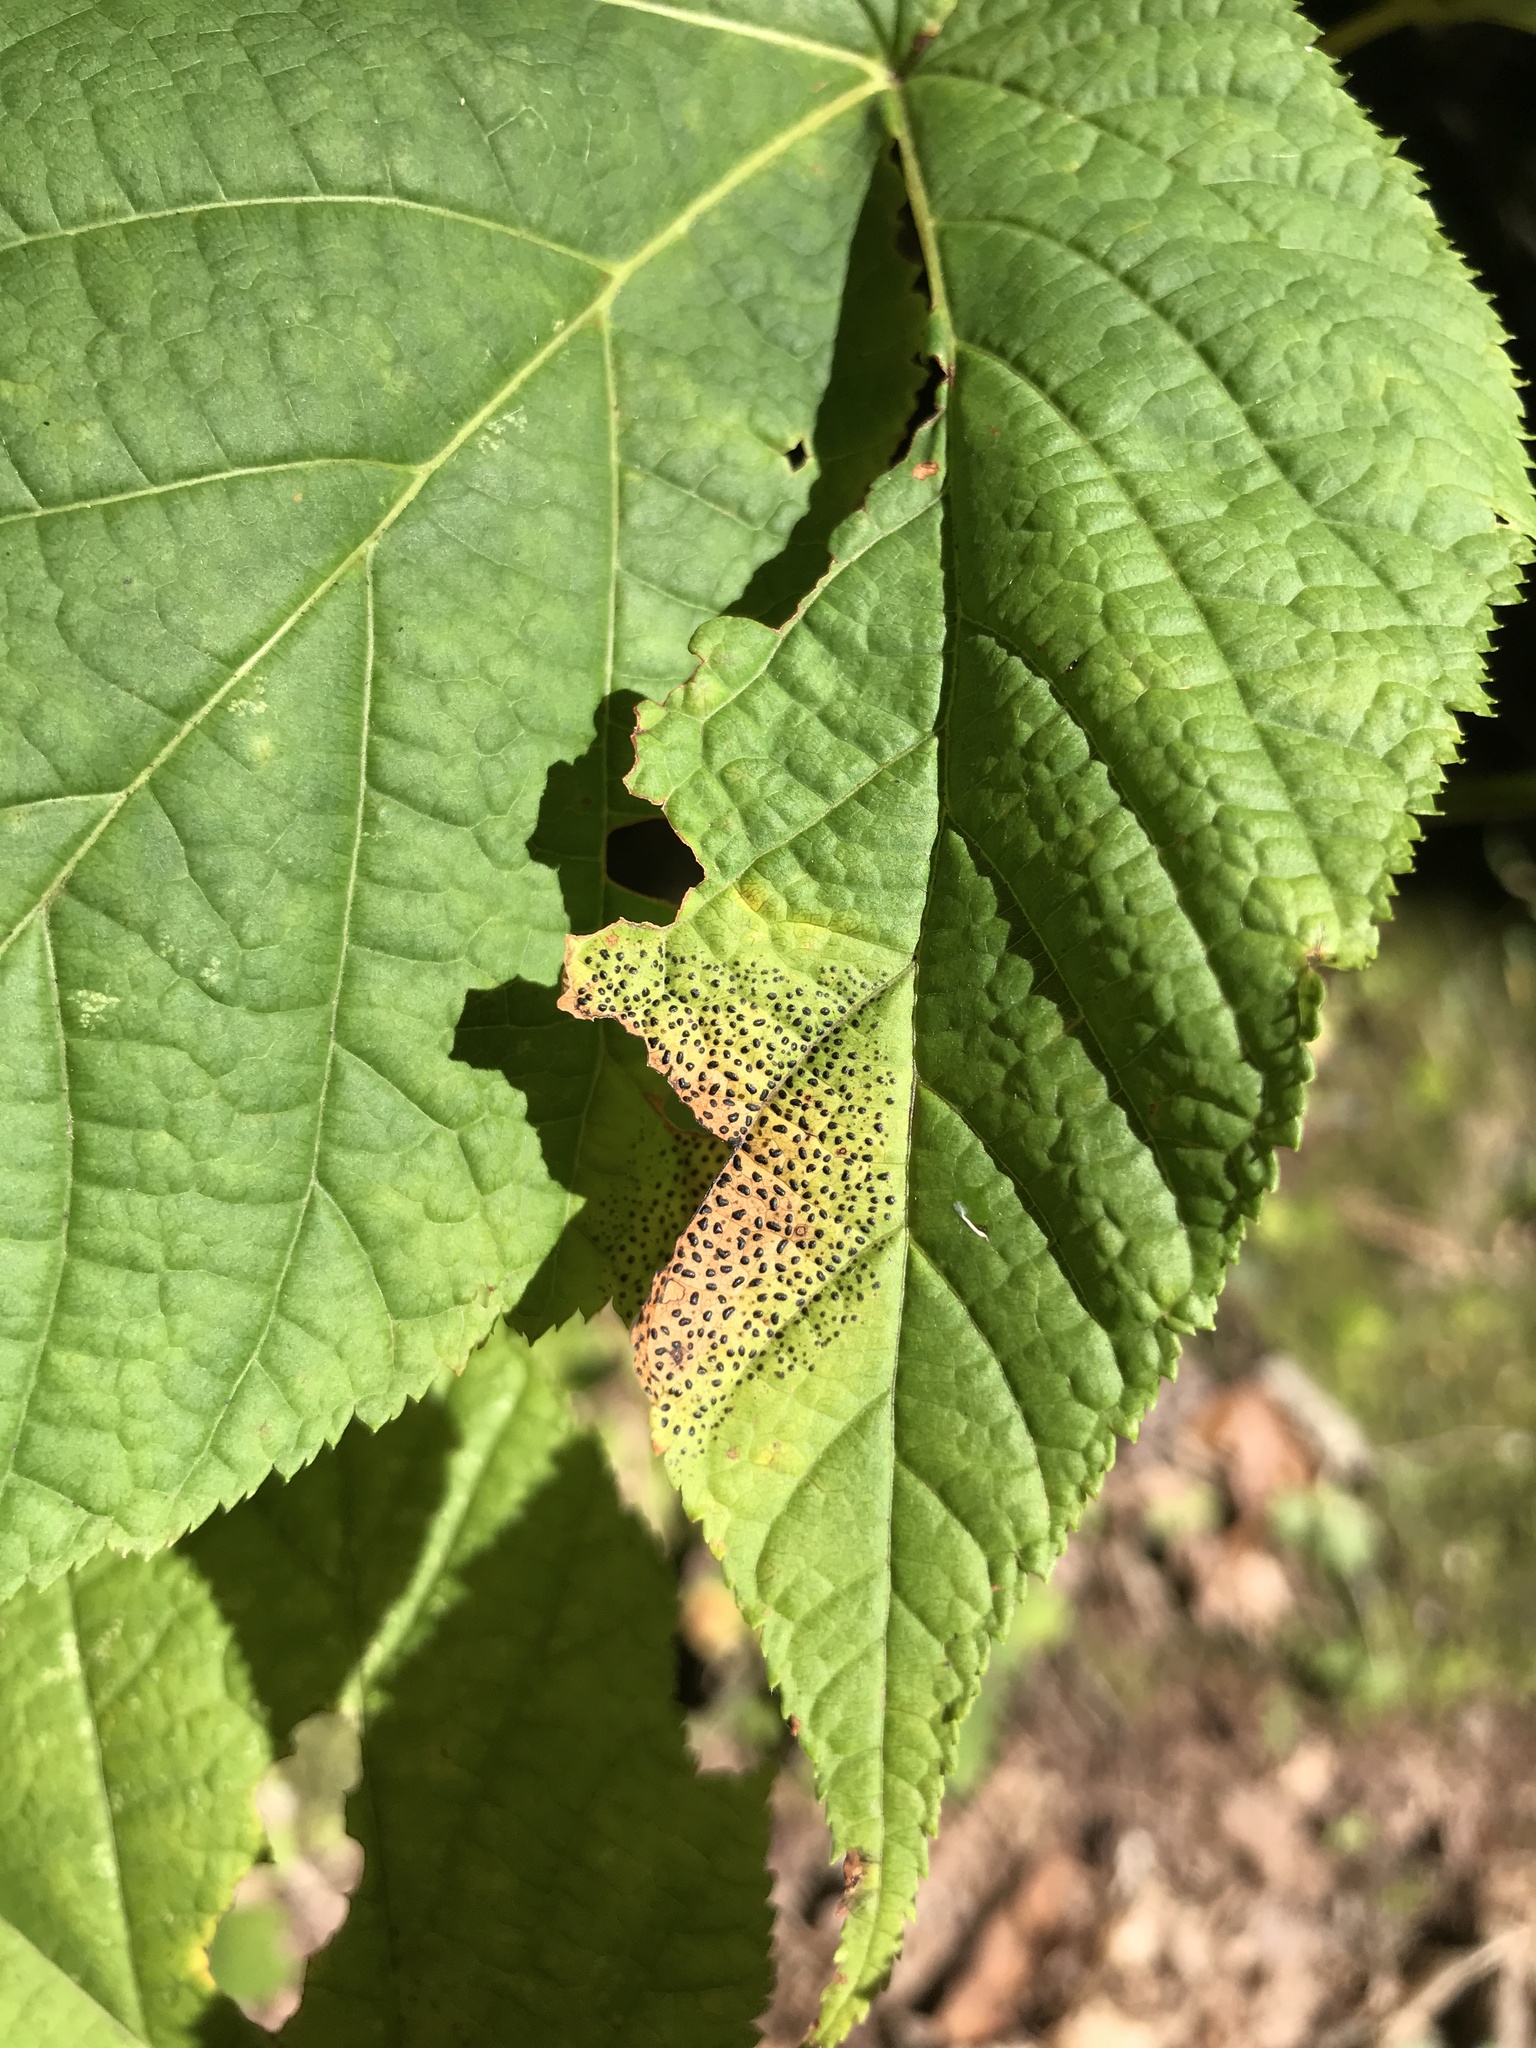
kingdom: Fungi
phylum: Ascomycota
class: Leotiomycetes
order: Rhytismatales
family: Rhytismataceae
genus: Rhytisma
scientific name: Rhytisma punctatum
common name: Speckled tar spot
